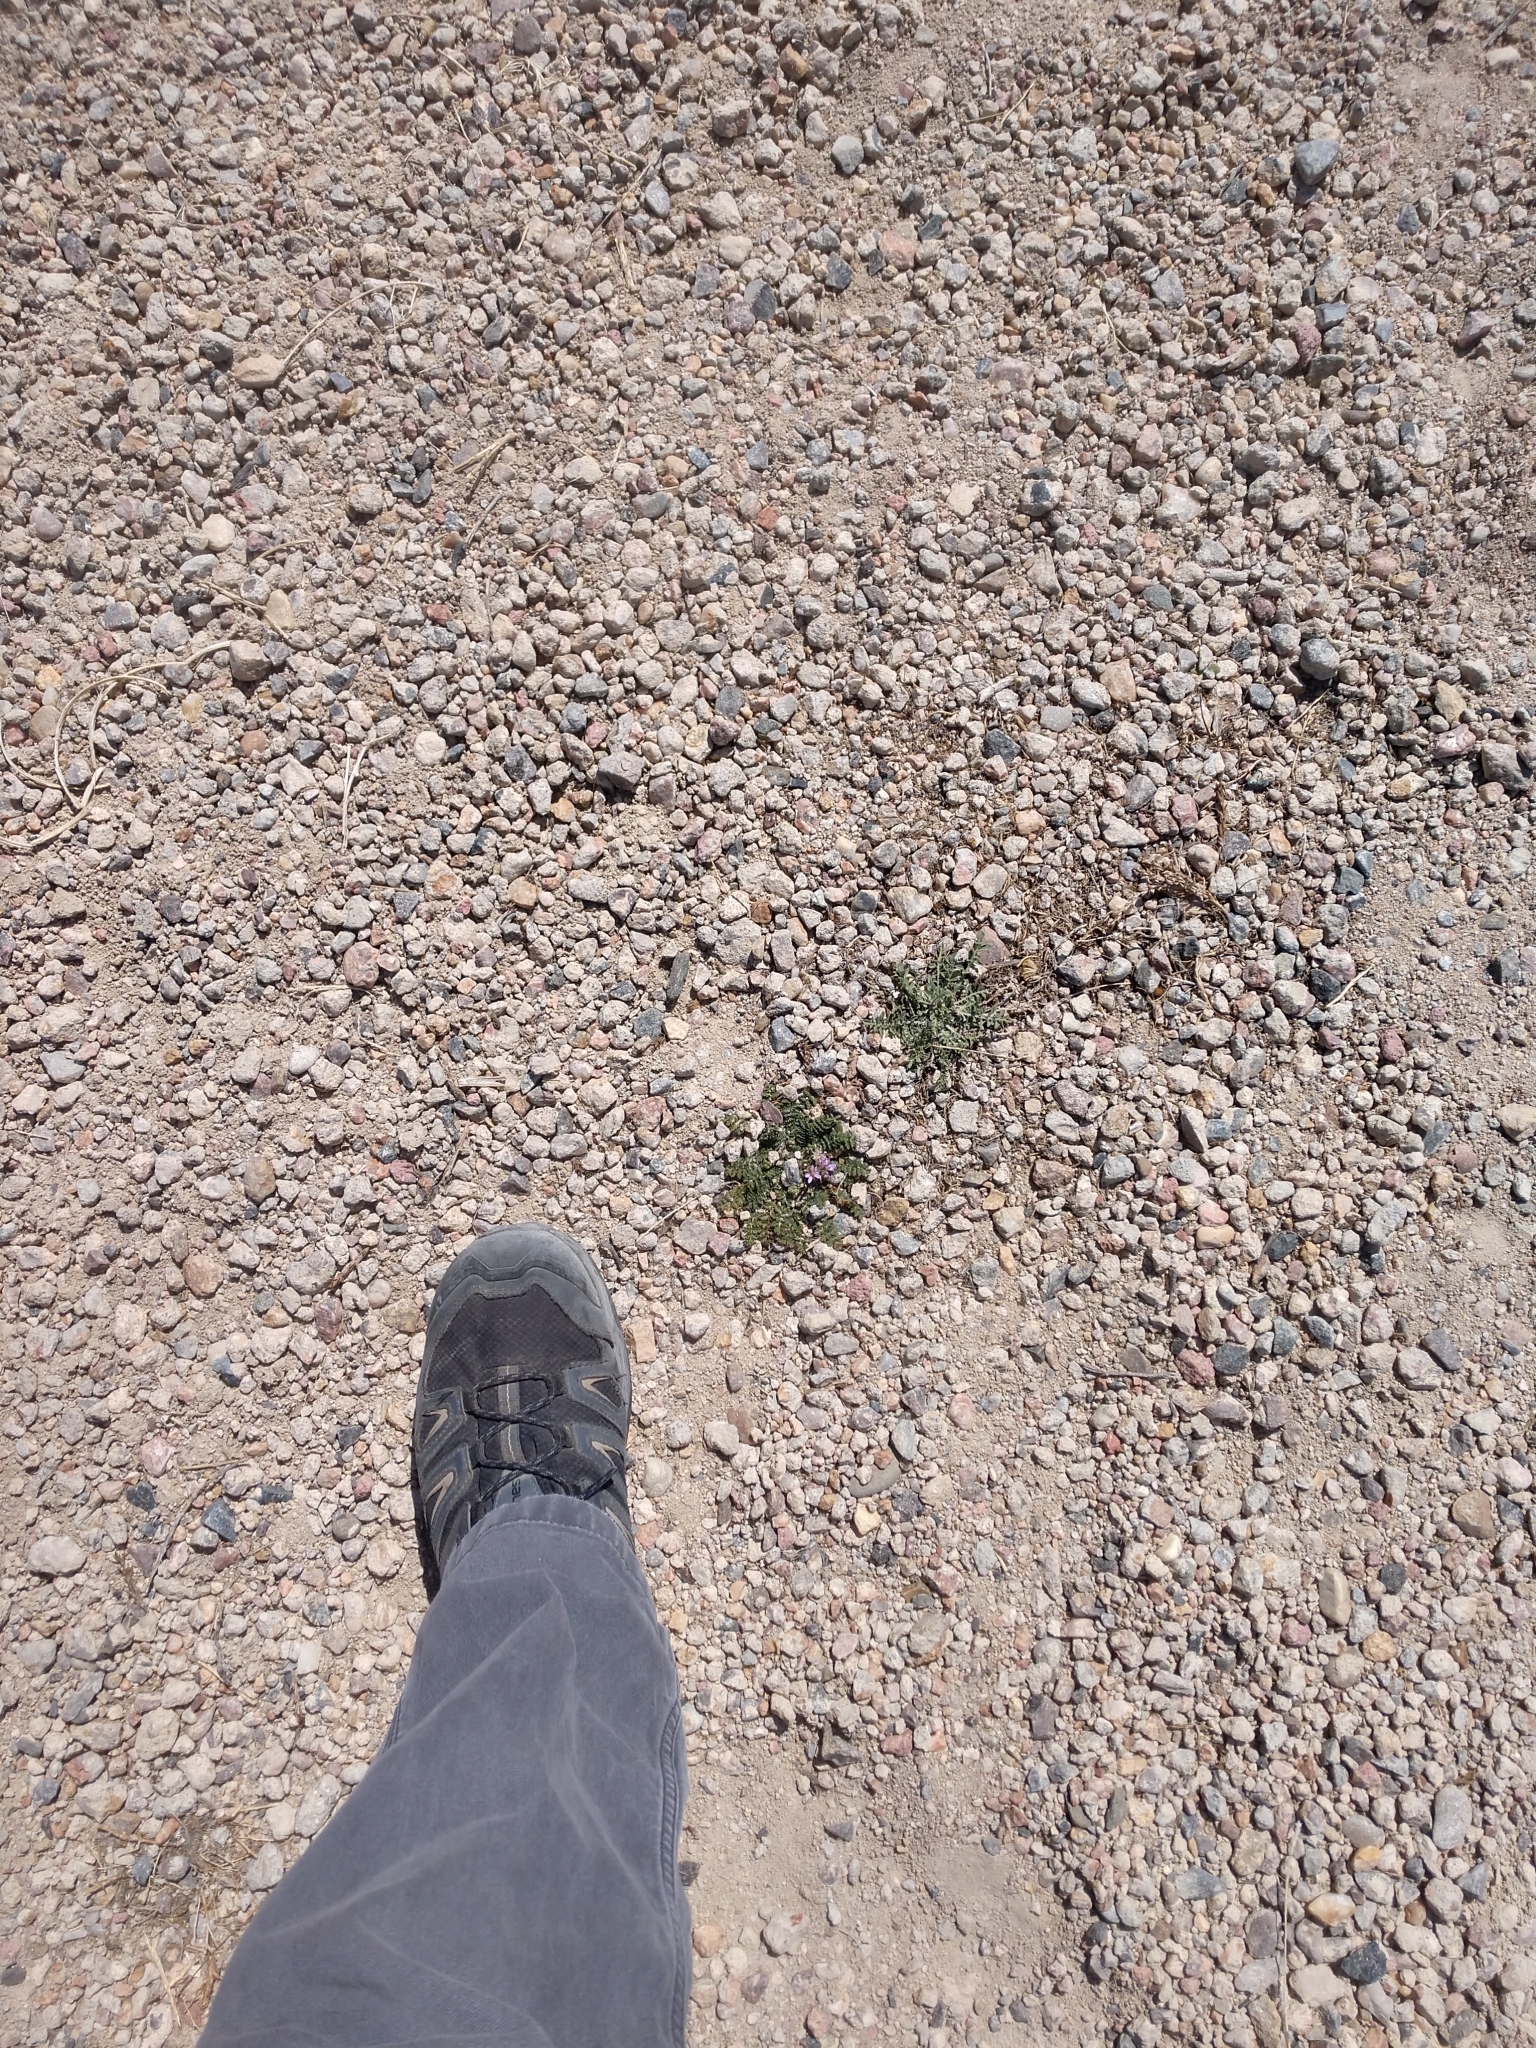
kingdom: Plantae
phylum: Tracheophyta
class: Magnoliopsida
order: Geraniales
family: Geraniaceae
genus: Erodium
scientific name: Erodium cicutarium
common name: Common stork's-bill
